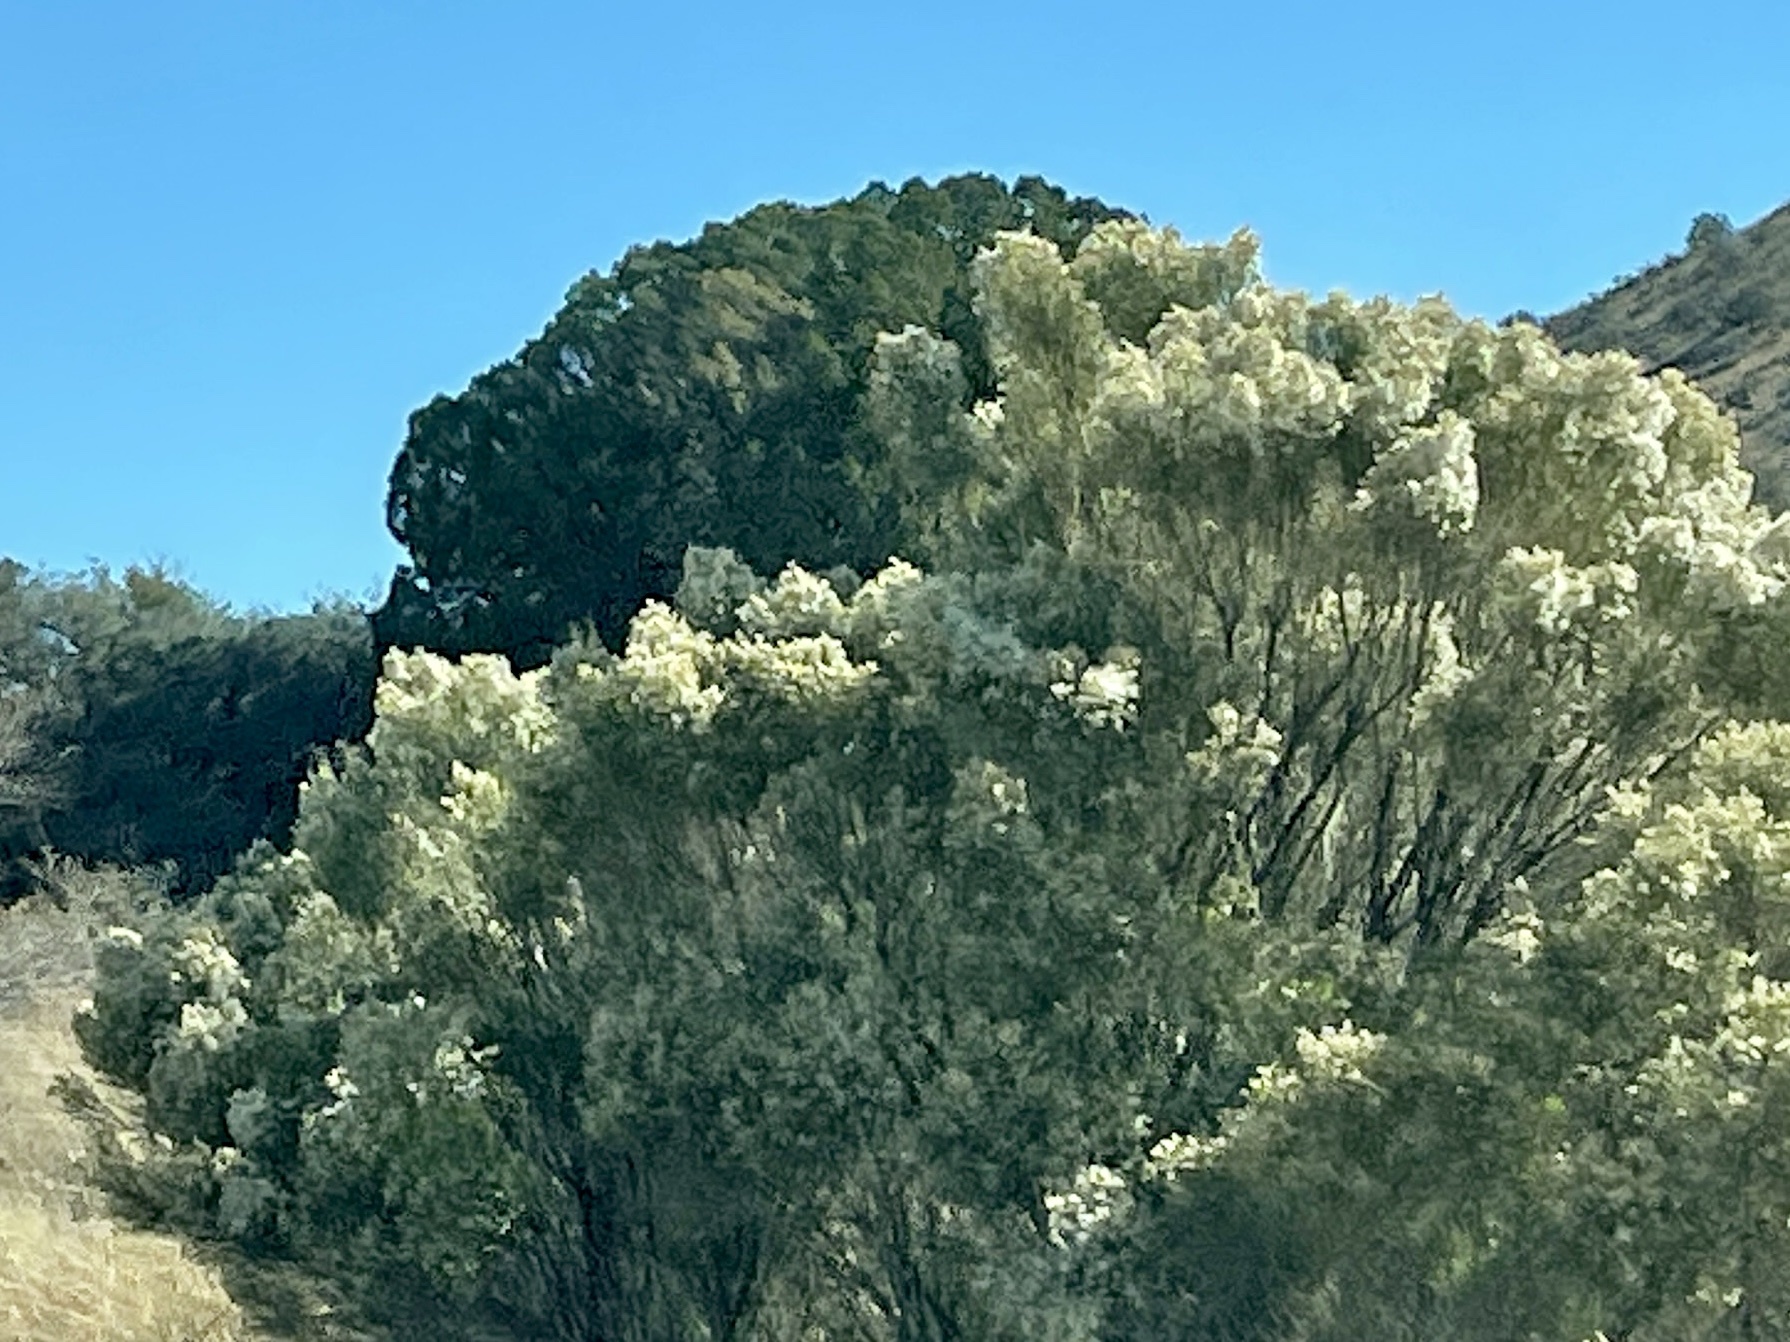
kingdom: Plantae
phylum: Tracheophyta
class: Magnoliopsida
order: Asterales
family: Asteraceae
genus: Baccharis
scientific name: Baccharis sarothroides
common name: Desert-broom
